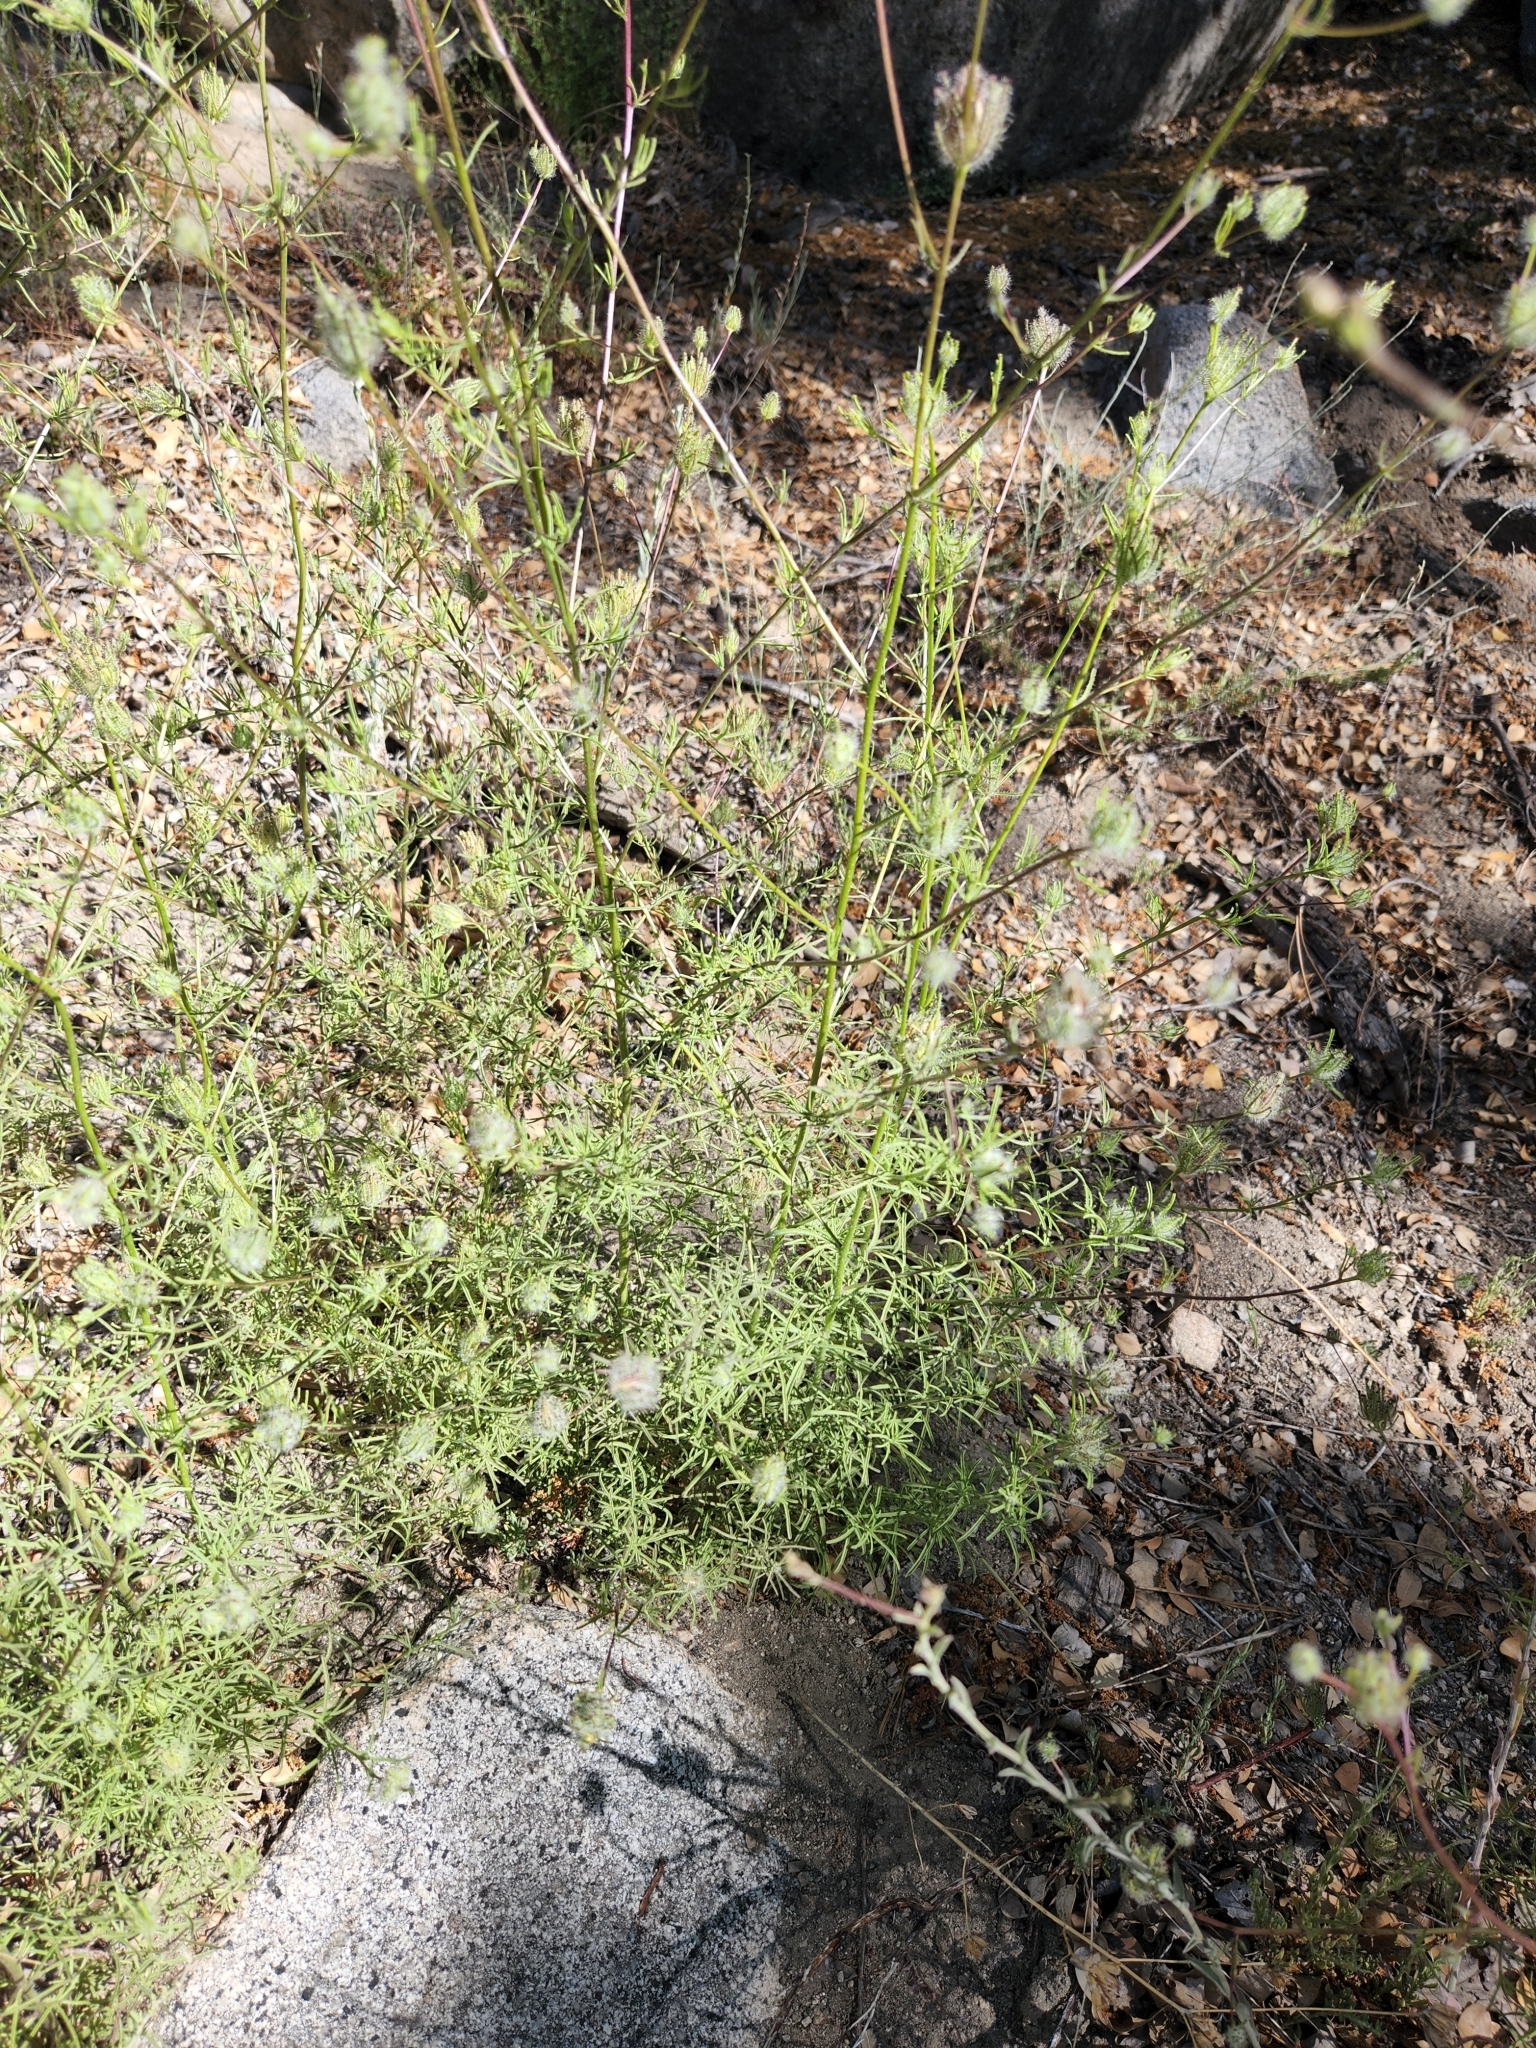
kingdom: Plantae
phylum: Tracheophyta
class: Magnoliopsida
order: Lamiales
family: Orobanchaceae
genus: Cordylanthus
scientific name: Cordylanthus rigidus
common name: Stiff-branch bird's-beak
